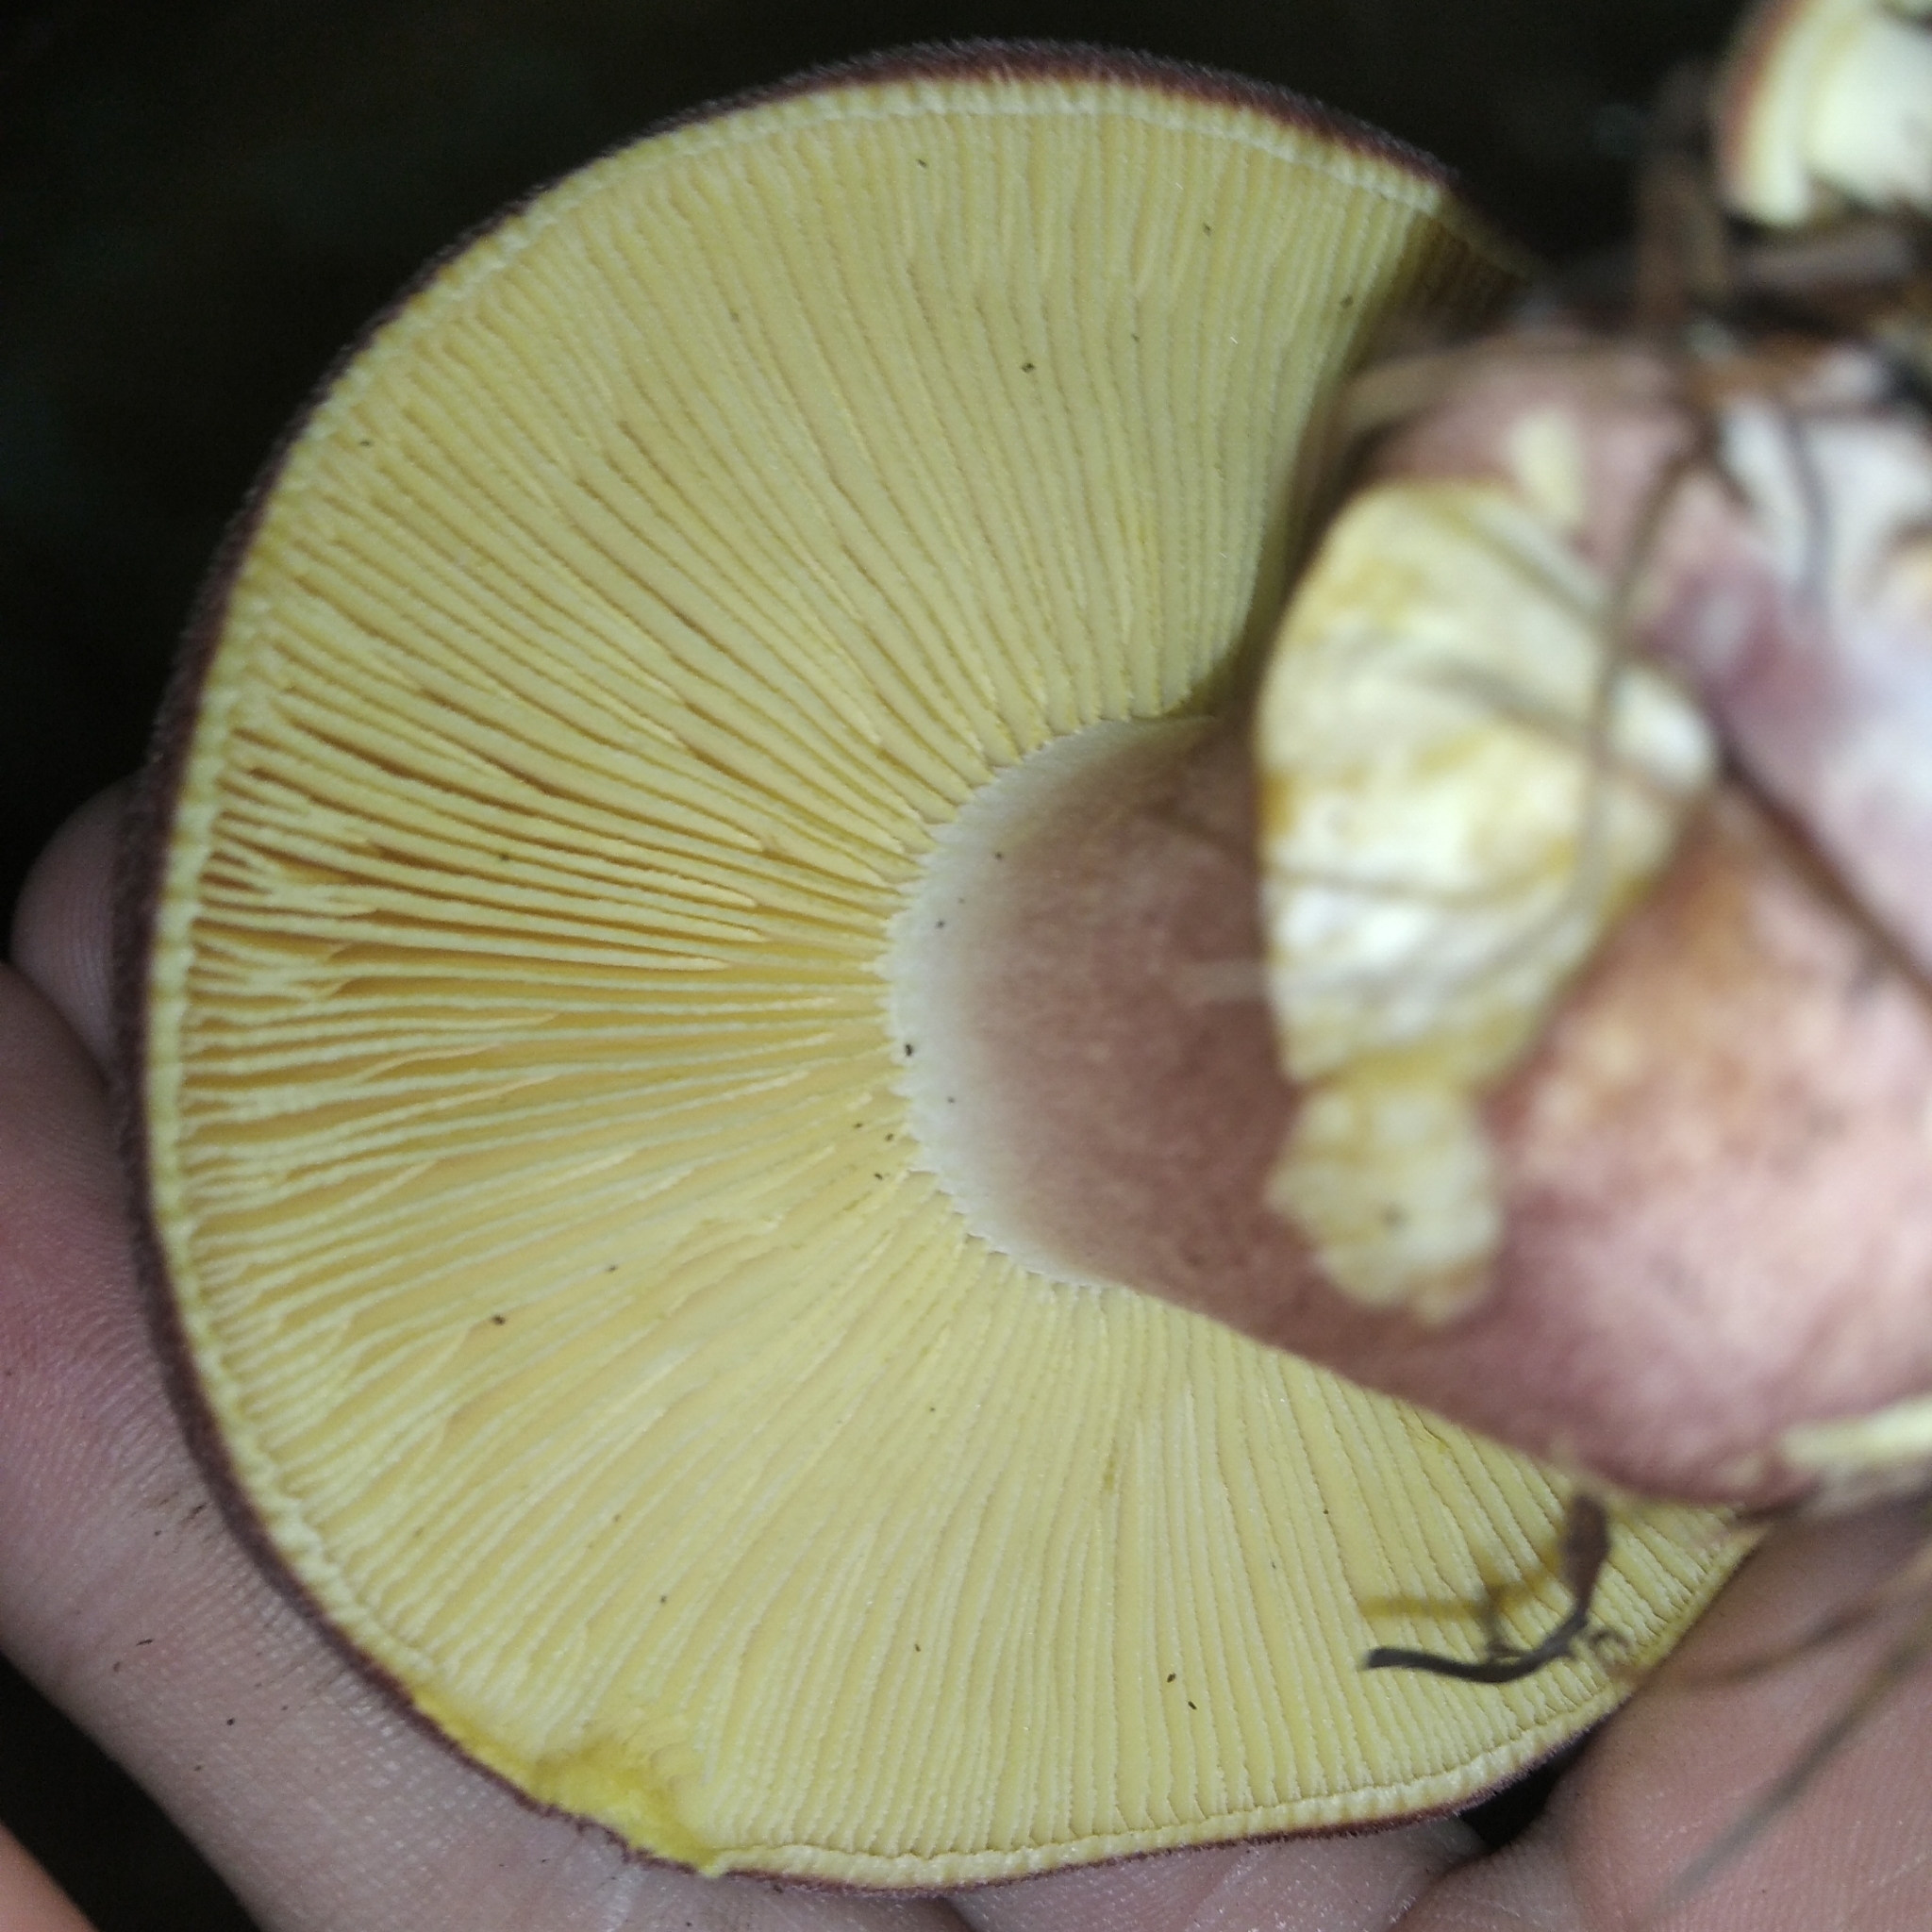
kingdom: Fungi
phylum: Basidiomycota
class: Agaricomycetes
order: Agaricales
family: Tricholomataceae
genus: Tricholomopsis
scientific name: Tricholomopsis rutilans
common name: Plums and custard
